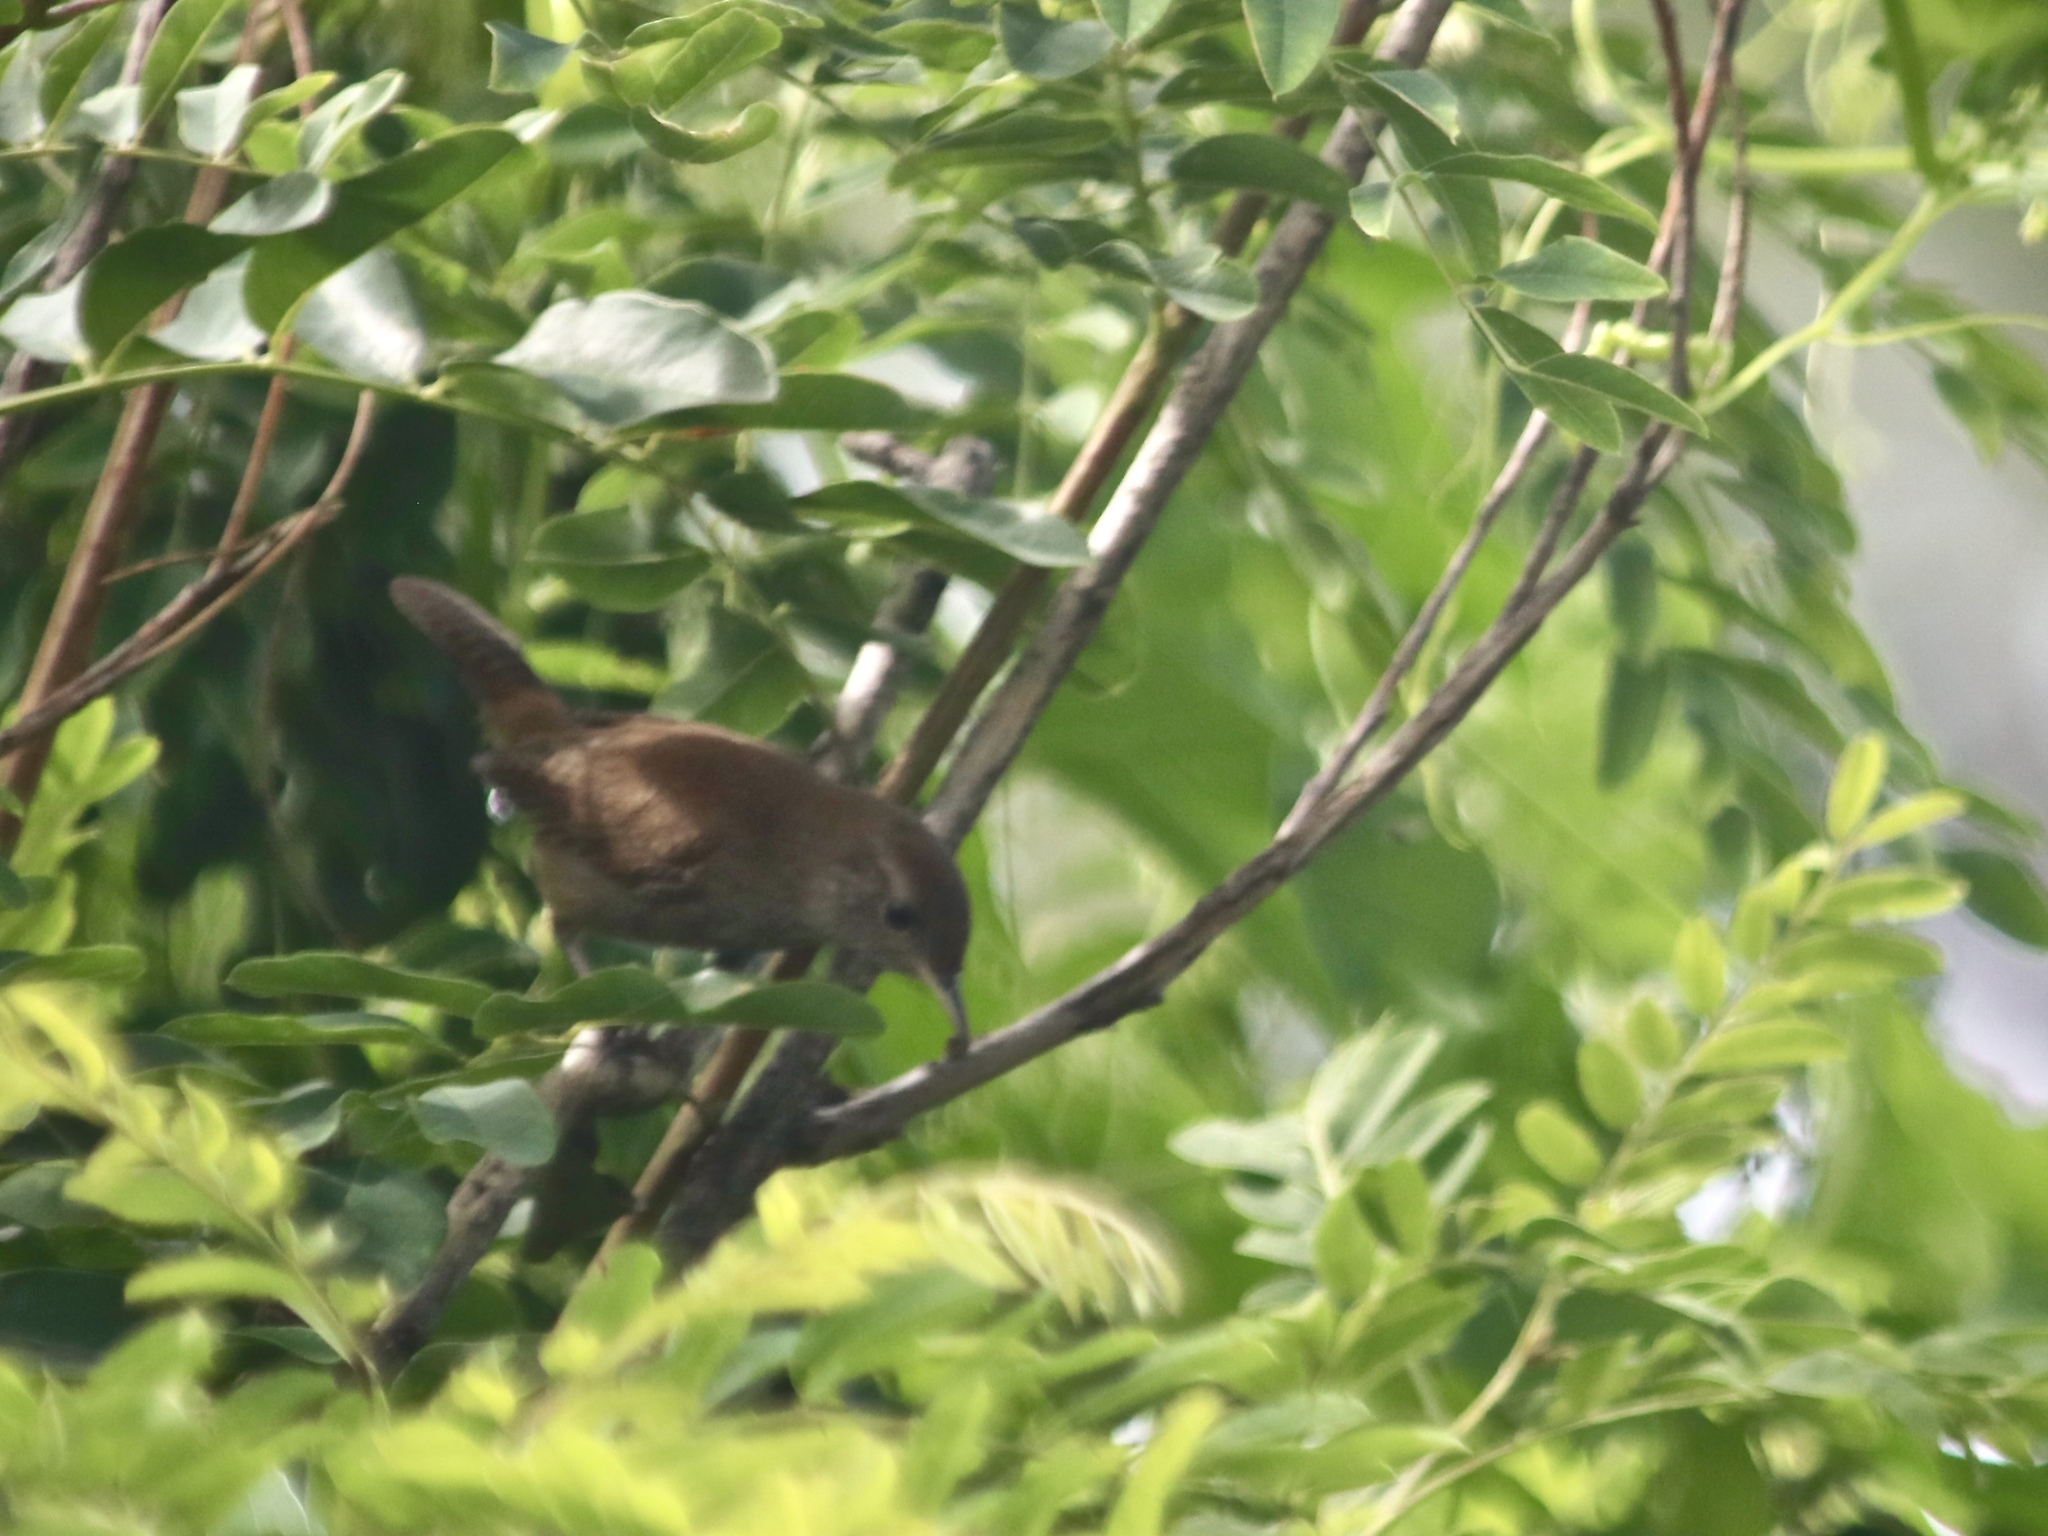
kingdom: Animalia
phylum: Chordata
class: Aves
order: Passeriformes
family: Troglodytidae
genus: Troglodytes
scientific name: Troglodytes aedon
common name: House wren
